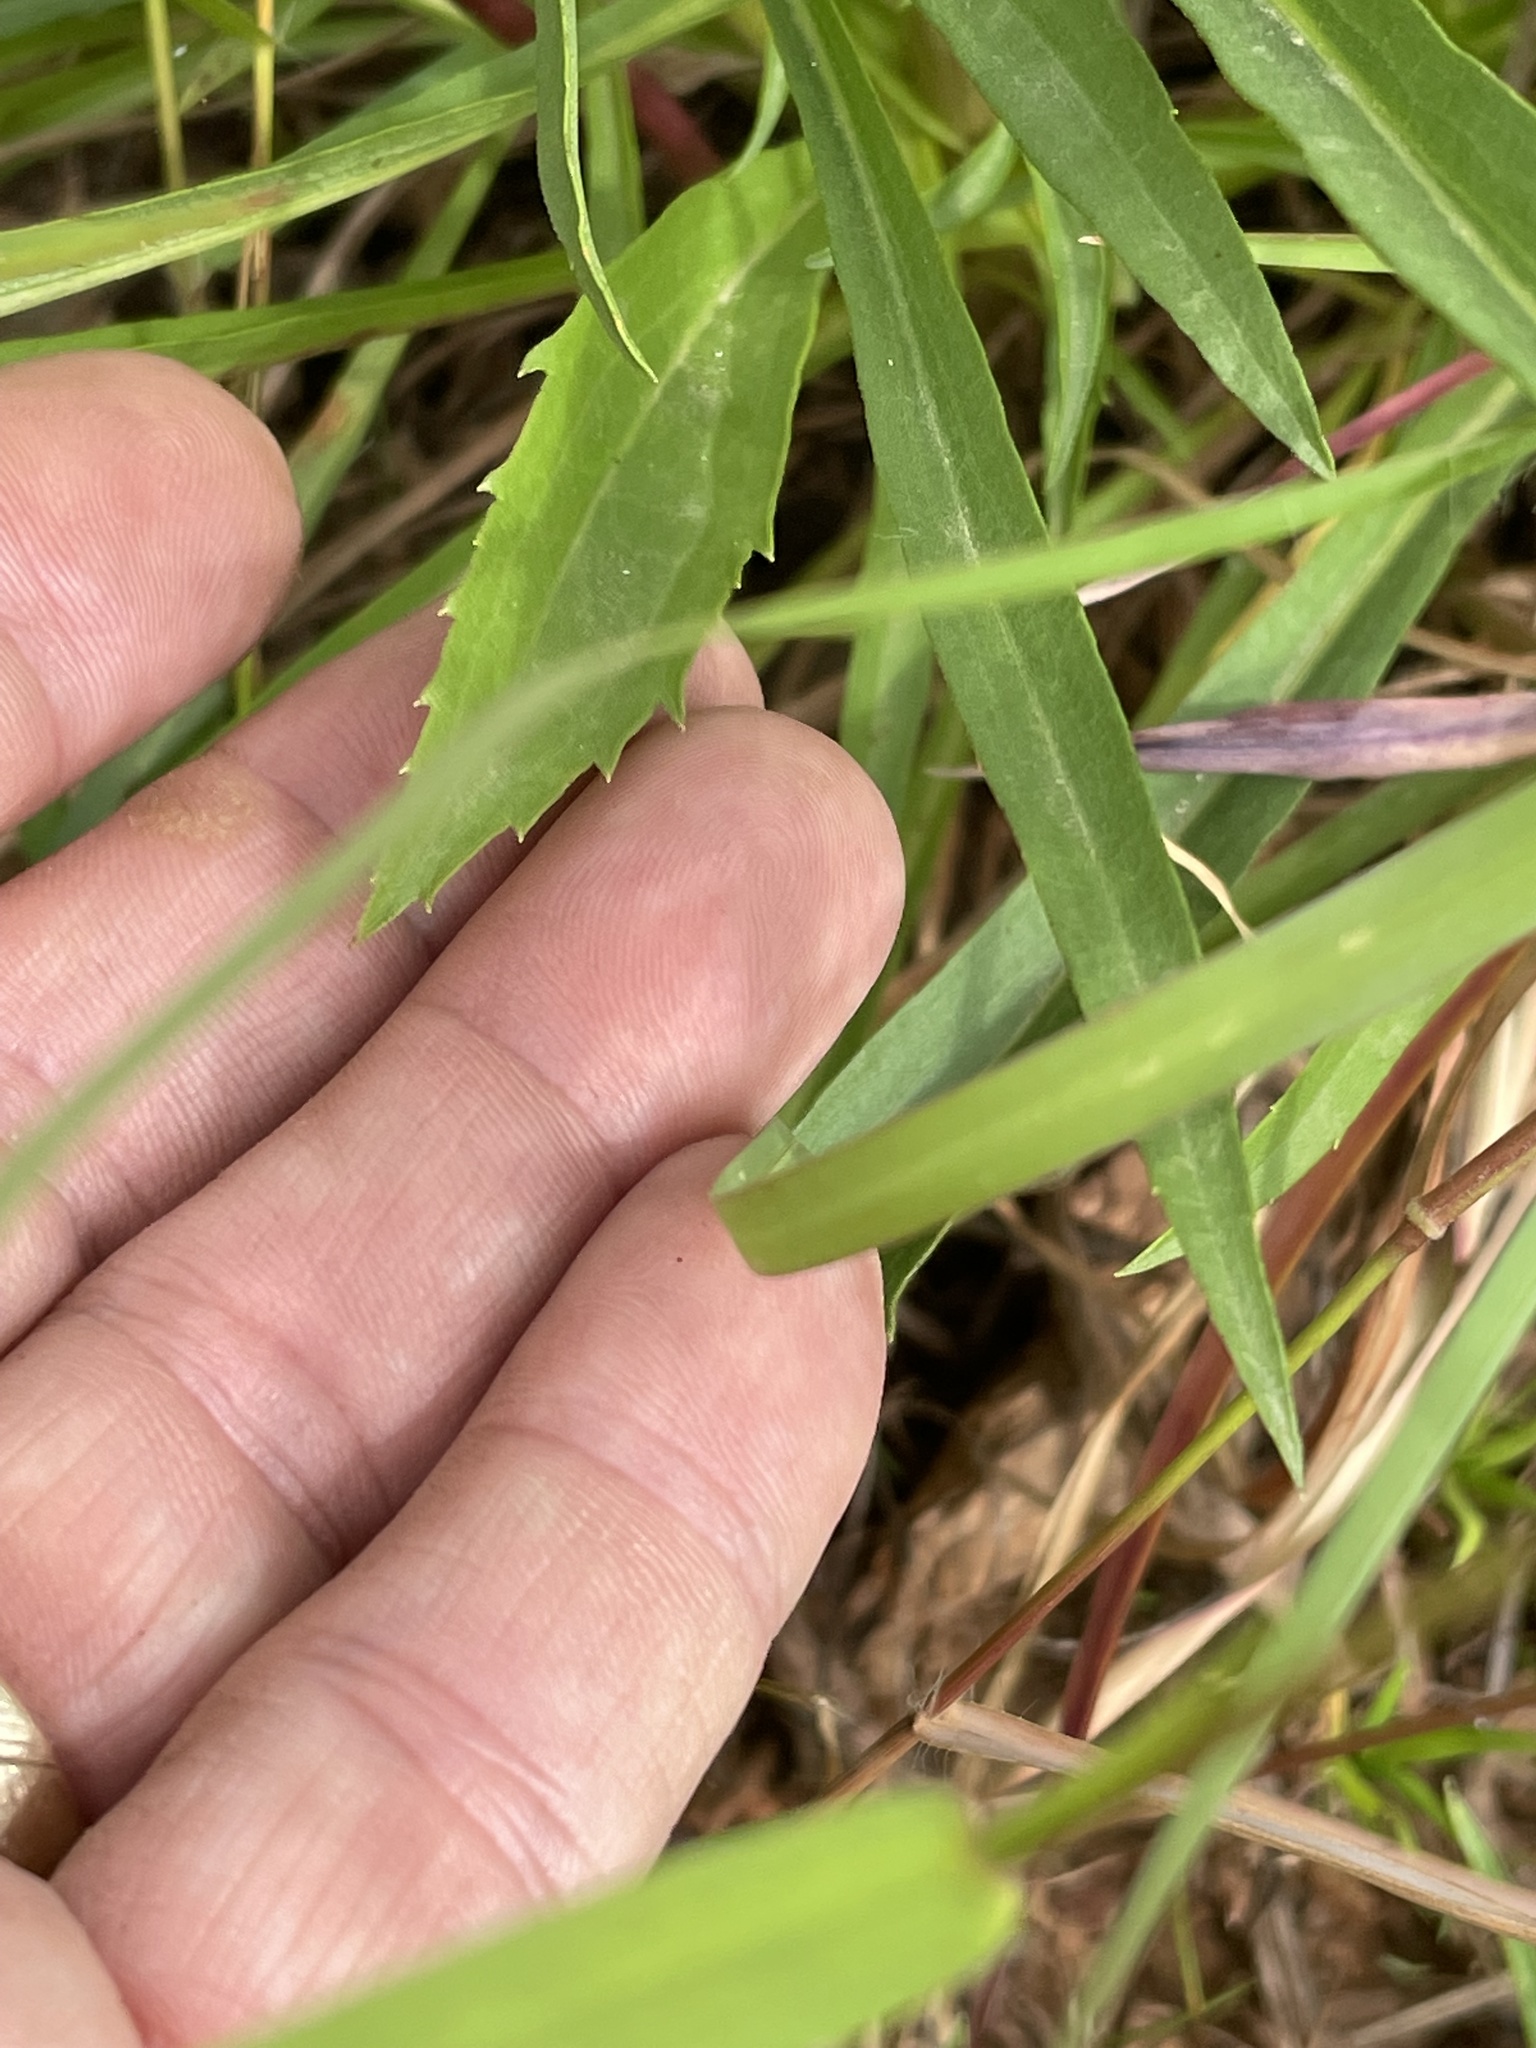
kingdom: Plantae
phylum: Tracheophyta
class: Magnoliopsida
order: Asterales
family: Asteraceae
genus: Solidago
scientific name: Solidago pinetorum
